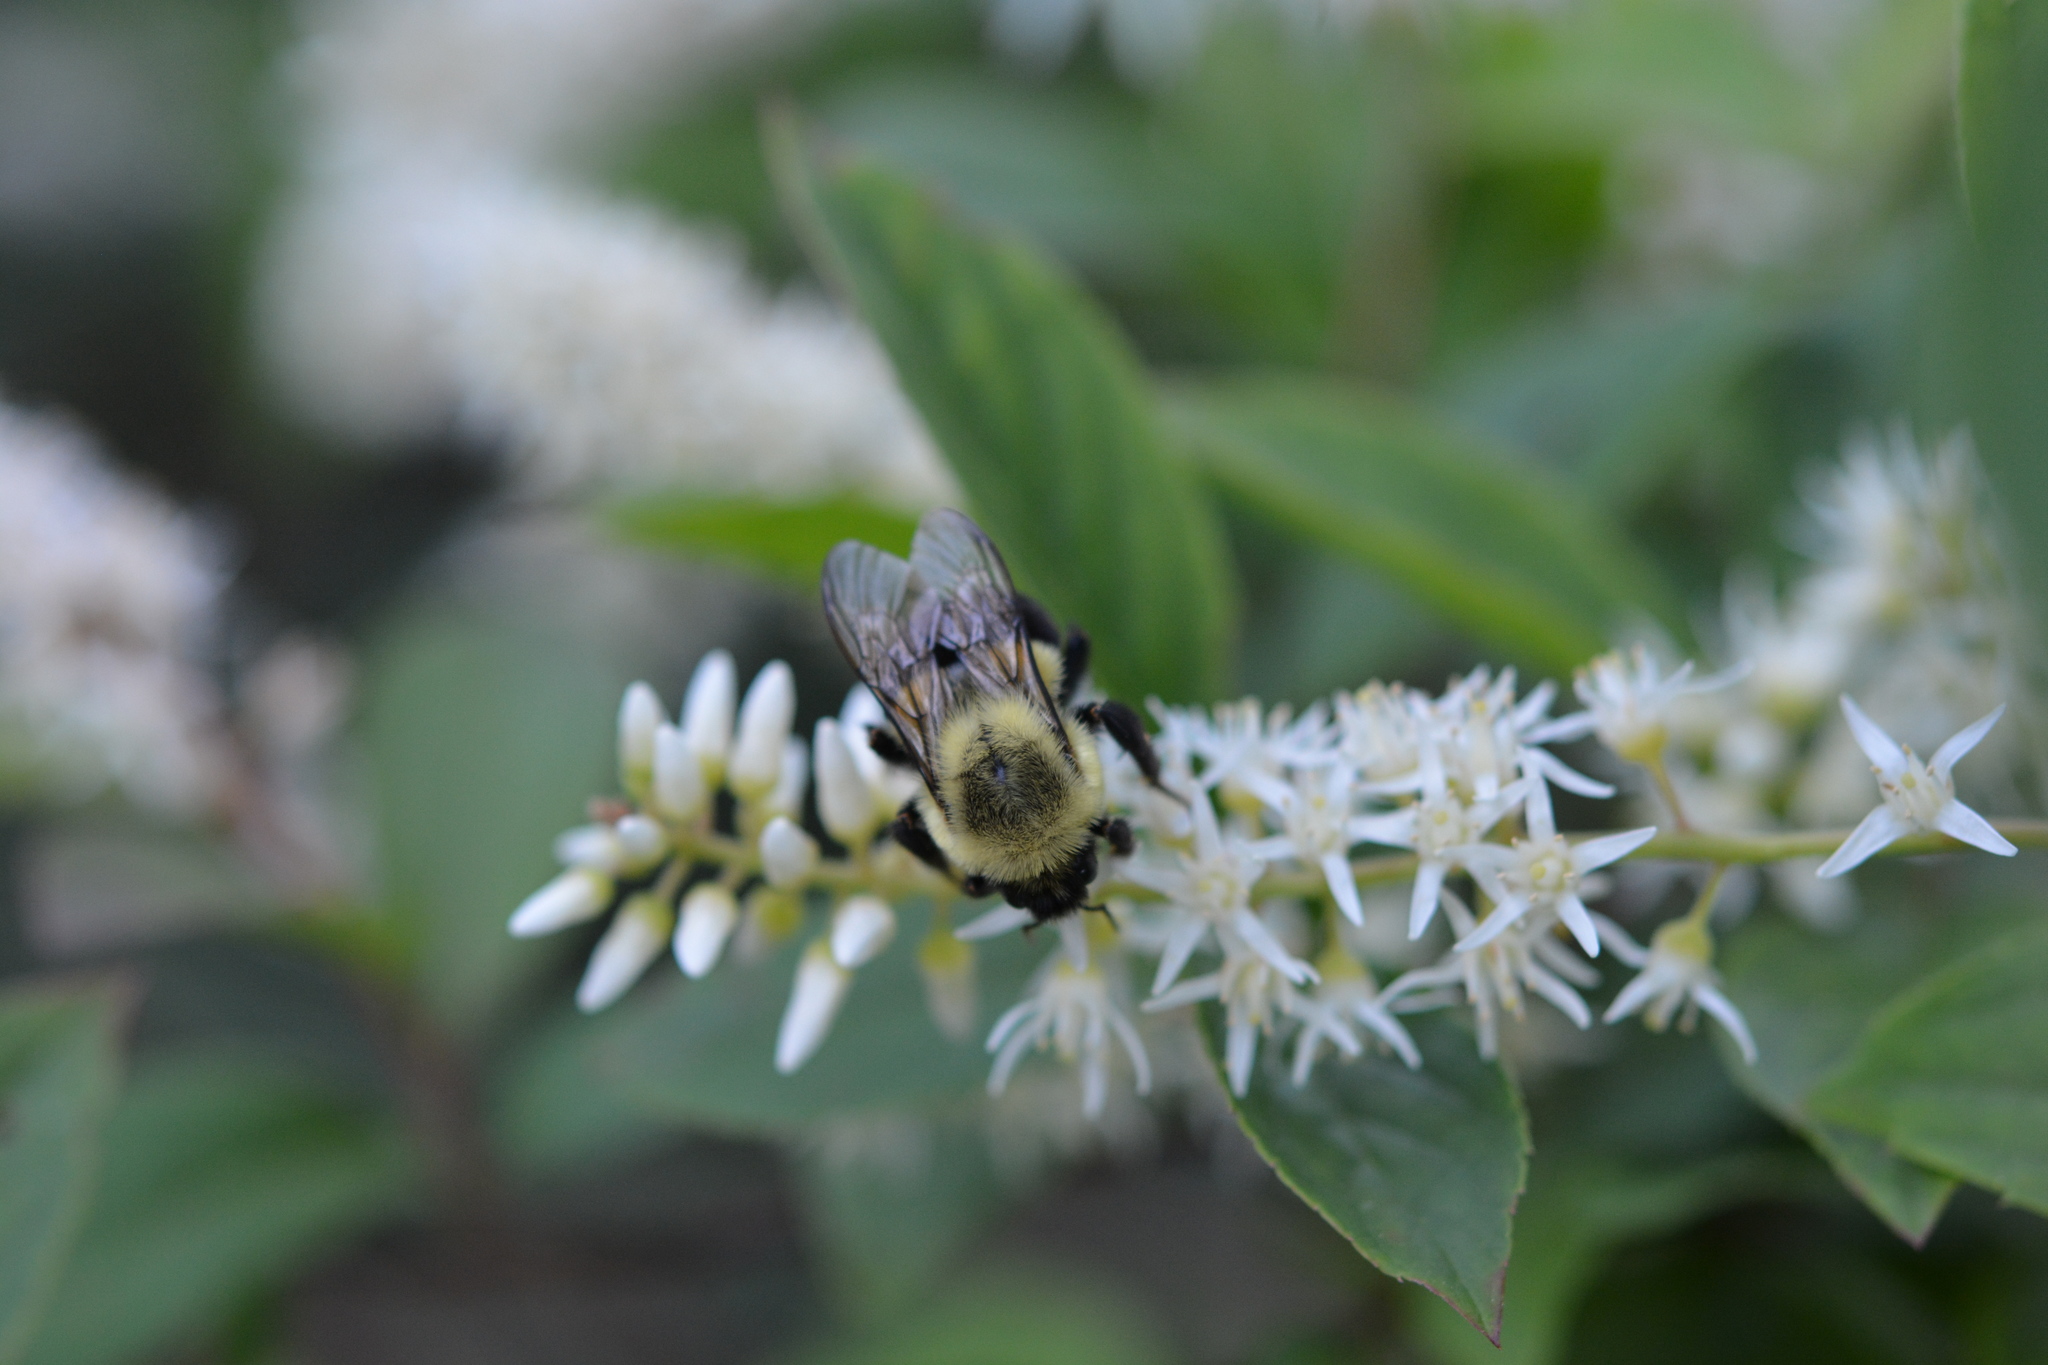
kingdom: Animalia
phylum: Arthropoda
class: Insecta
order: Hymenoptera
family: Apidae
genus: Bombus
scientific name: Bombus impatiens
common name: Common eastern bumble bee
